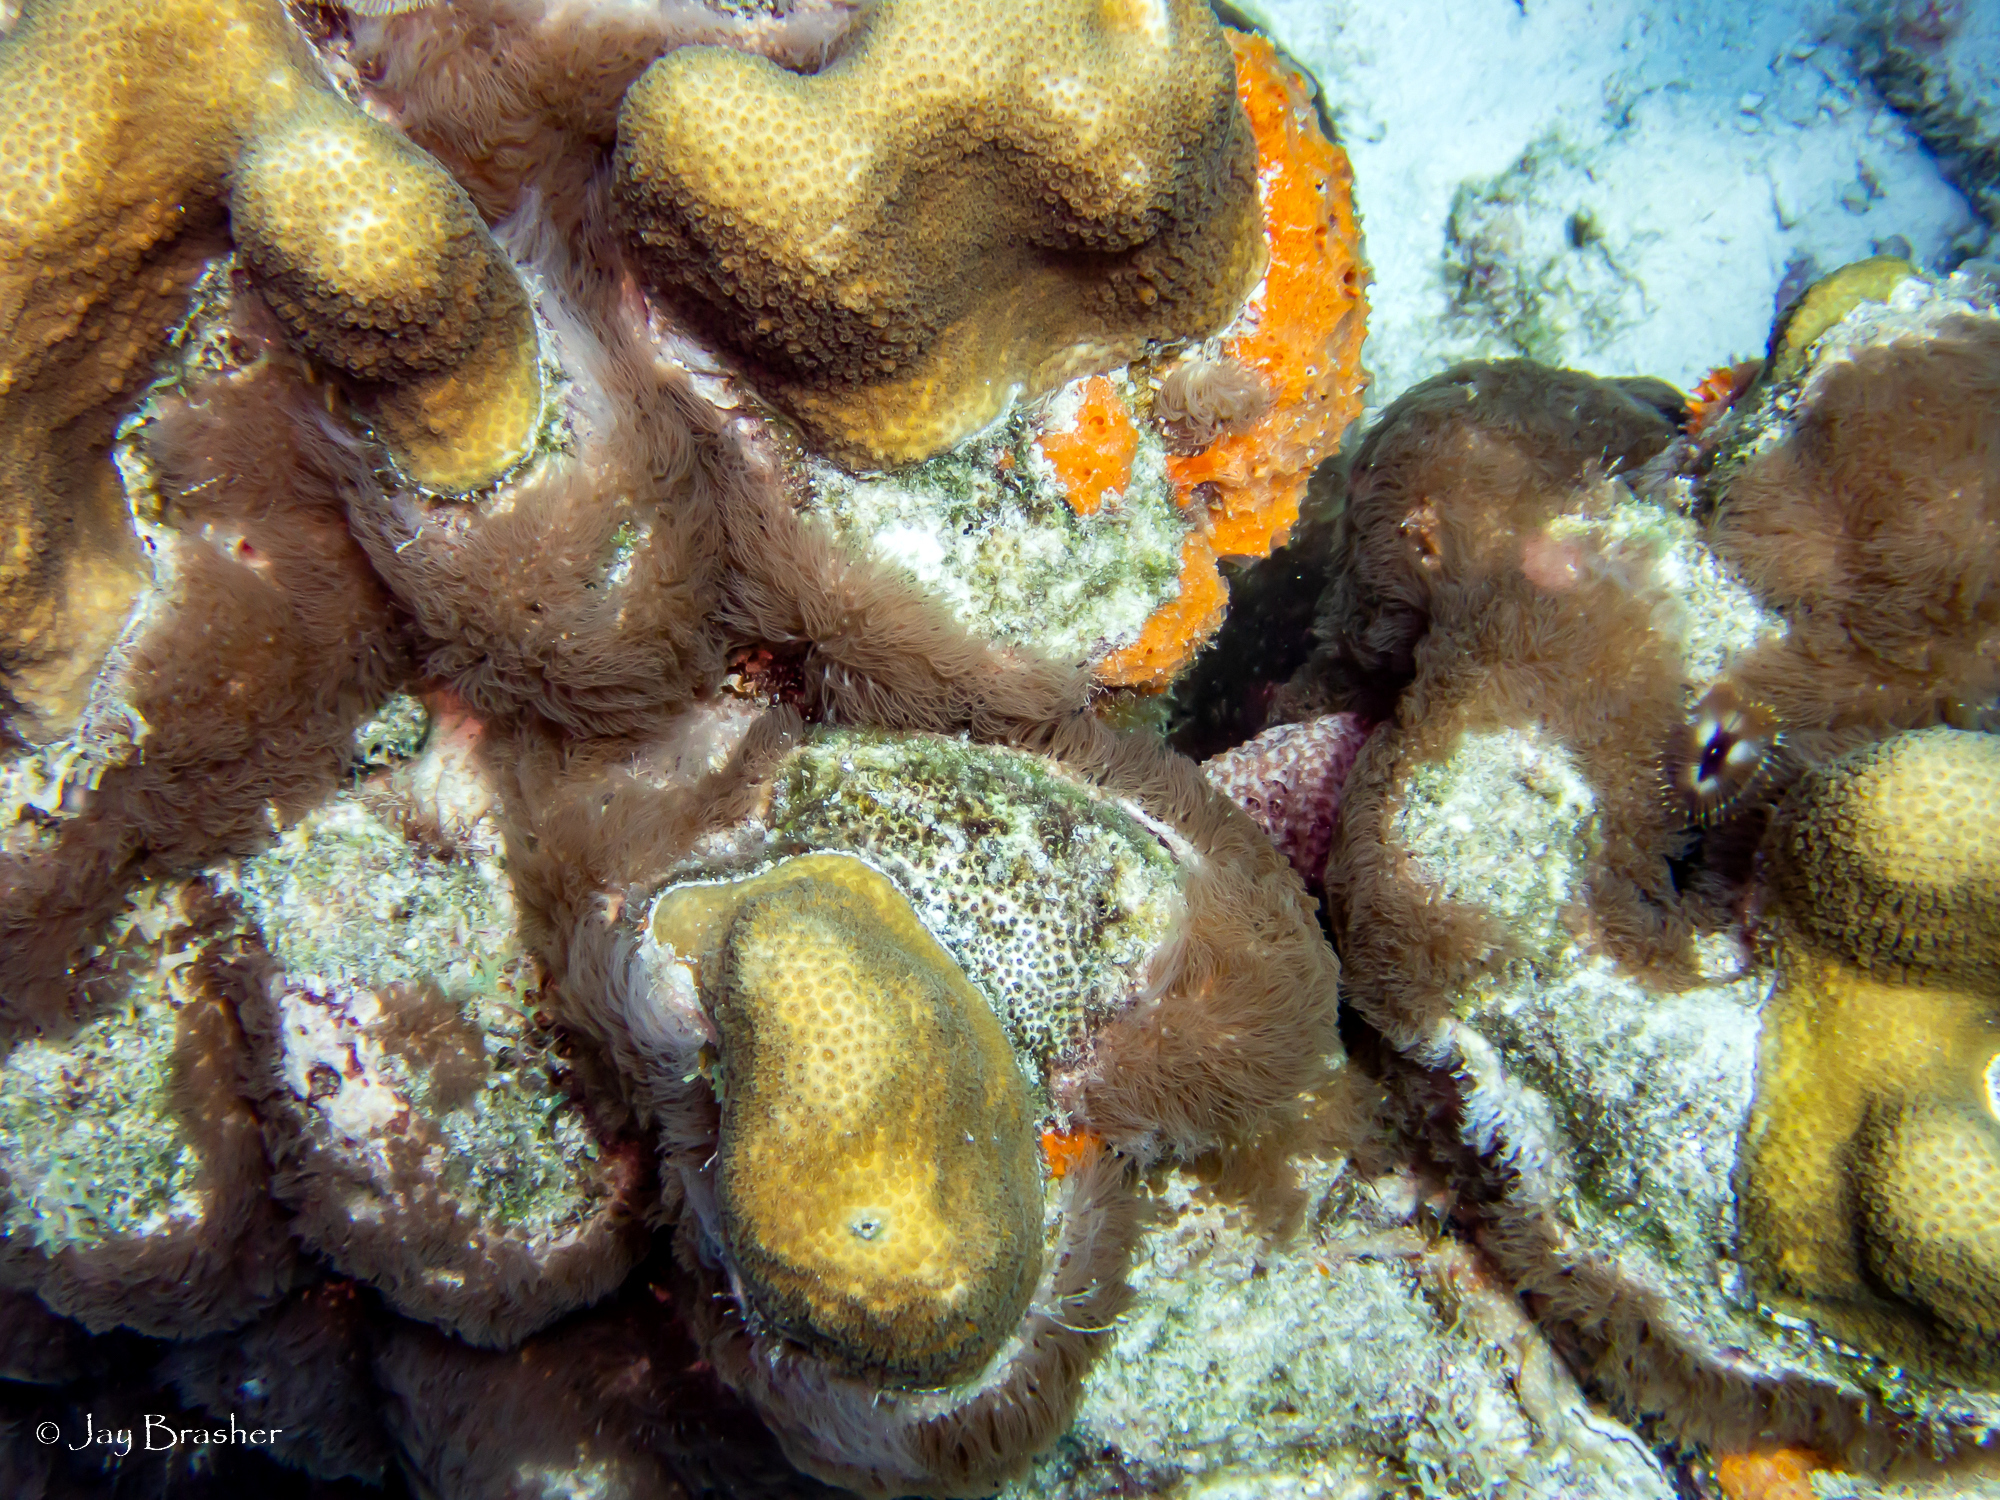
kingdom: Animalia
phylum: Cnidaria
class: Anthozoa
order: Scleralcyonacea
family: Erythropodiidae
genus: Erythropodium
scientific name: Erythropodium caribaeorum
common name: Encrusting gorgonian
